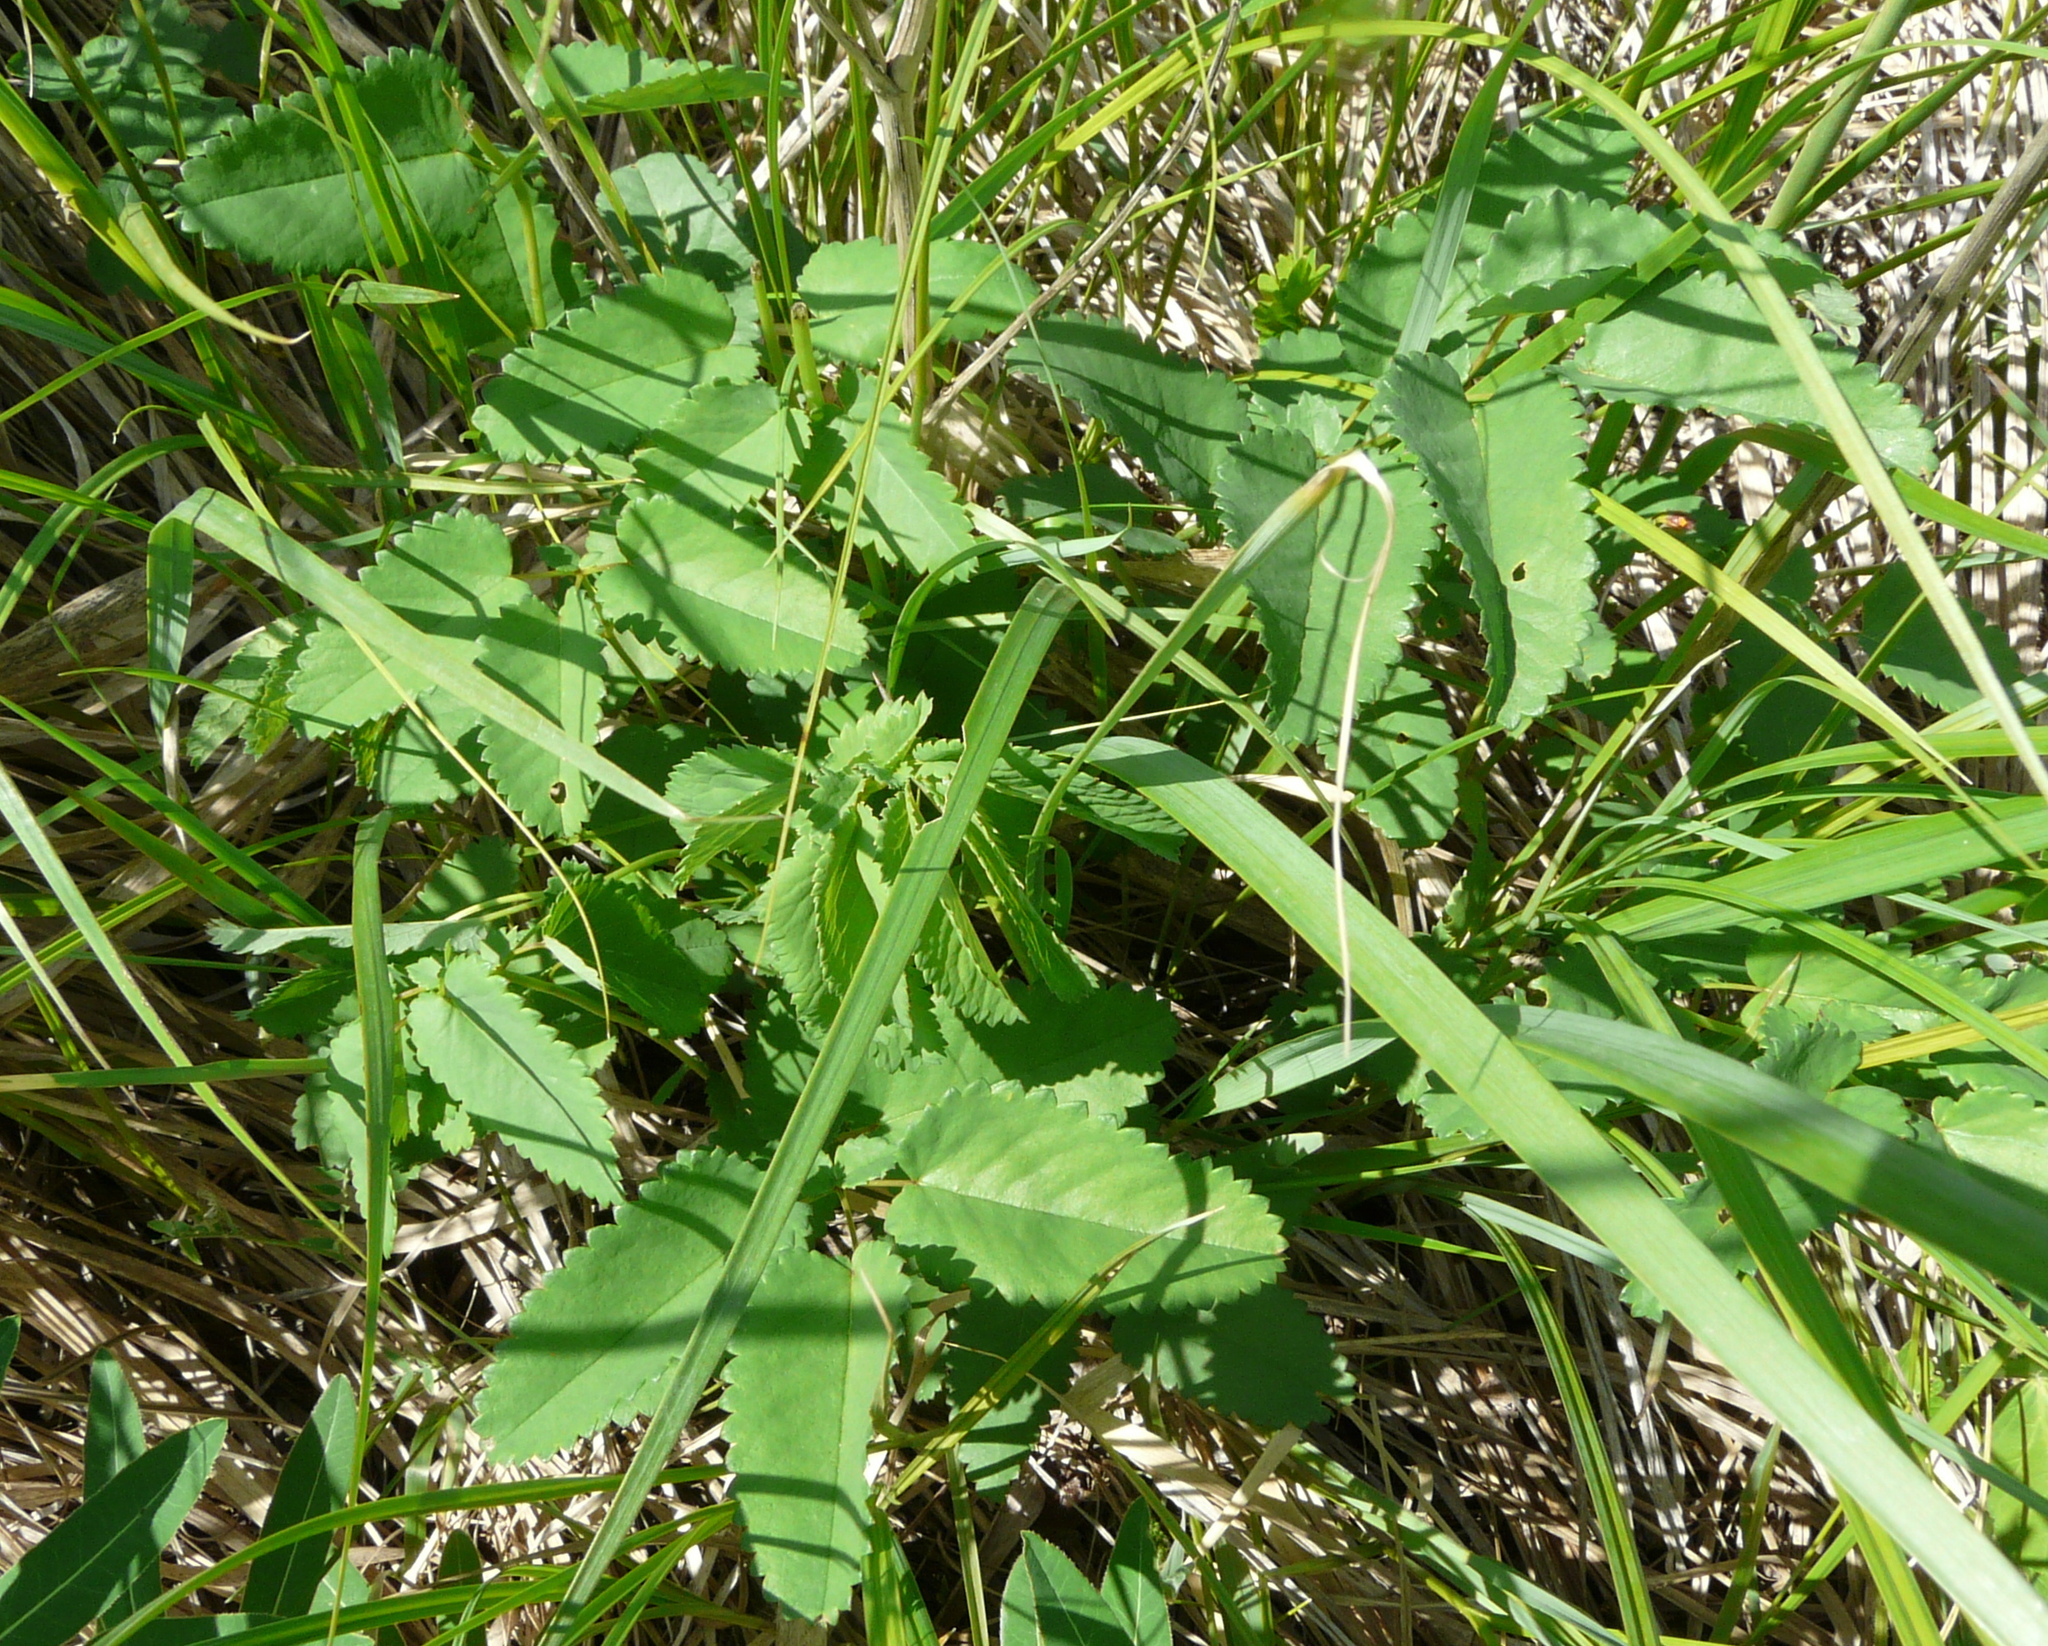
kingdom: Plantae
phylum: Tracheophyta
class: Magnoliopsida
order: Rosales
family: Rosaceae
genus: Sanguisorba
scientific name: Sanguisorba officinalis
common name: Great burnet
